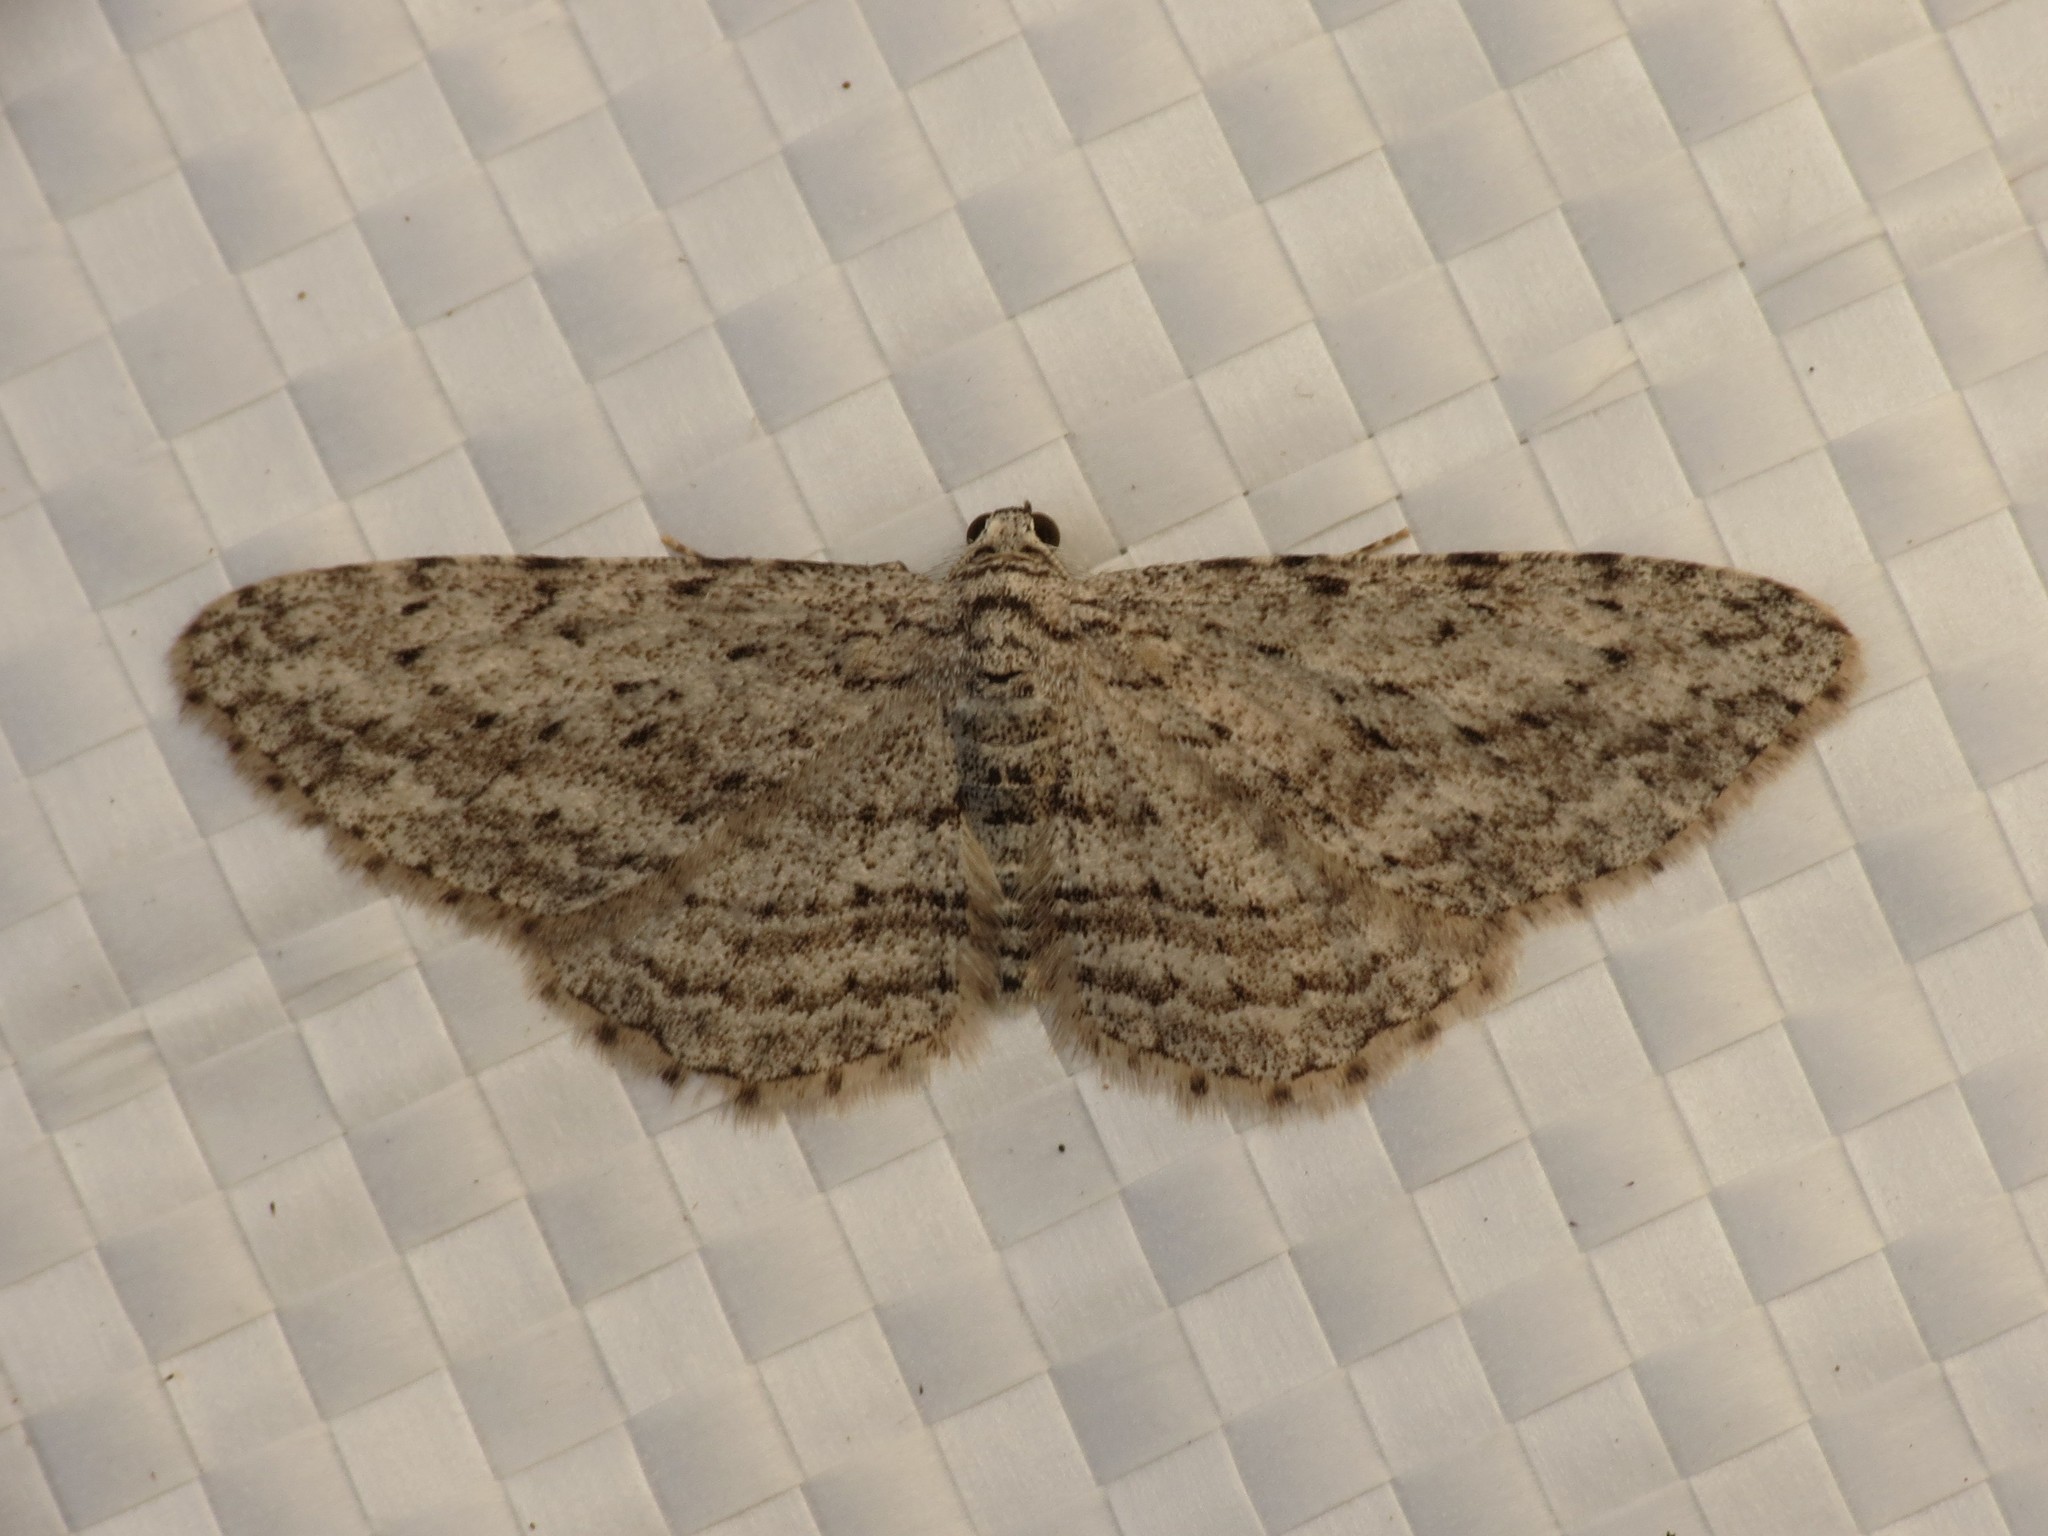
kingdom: Animalia
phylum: Arthropoda
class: Insecta
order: Lepidoptera
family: Geometridae
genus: Phelotis
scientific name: Phelotis cognata
